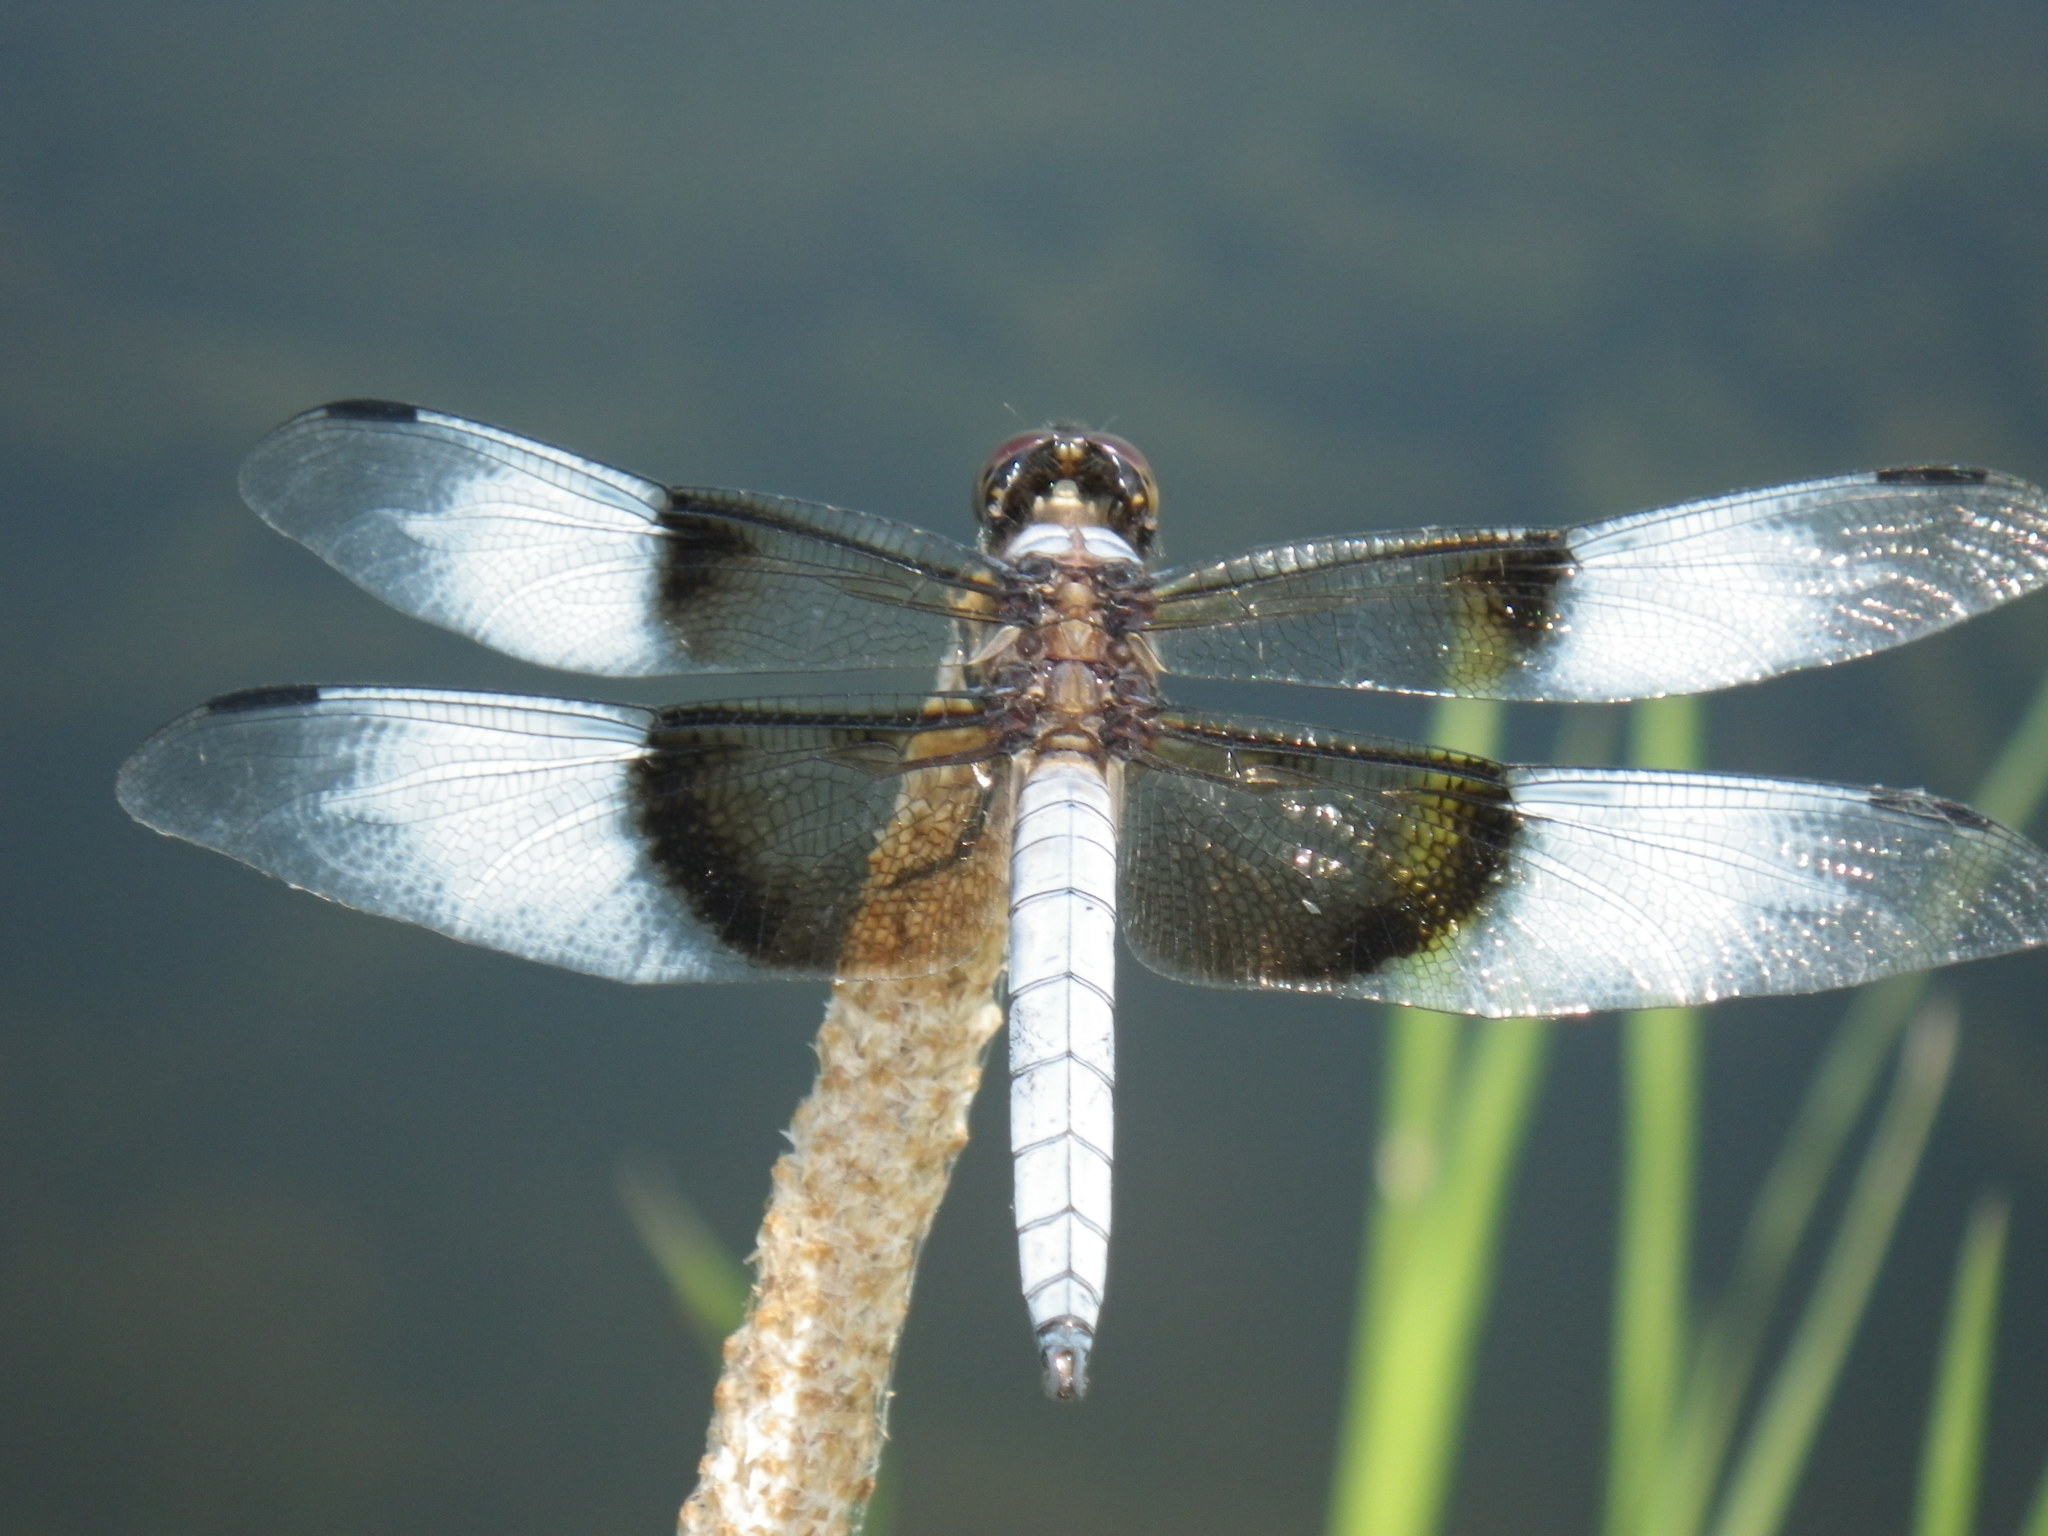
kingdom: Animalia
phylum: Arthropoda
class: Insecta
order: Odonata
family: Libellulidae
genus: Libellula
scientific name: Libellula luctuosa
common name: Widow skimmer
